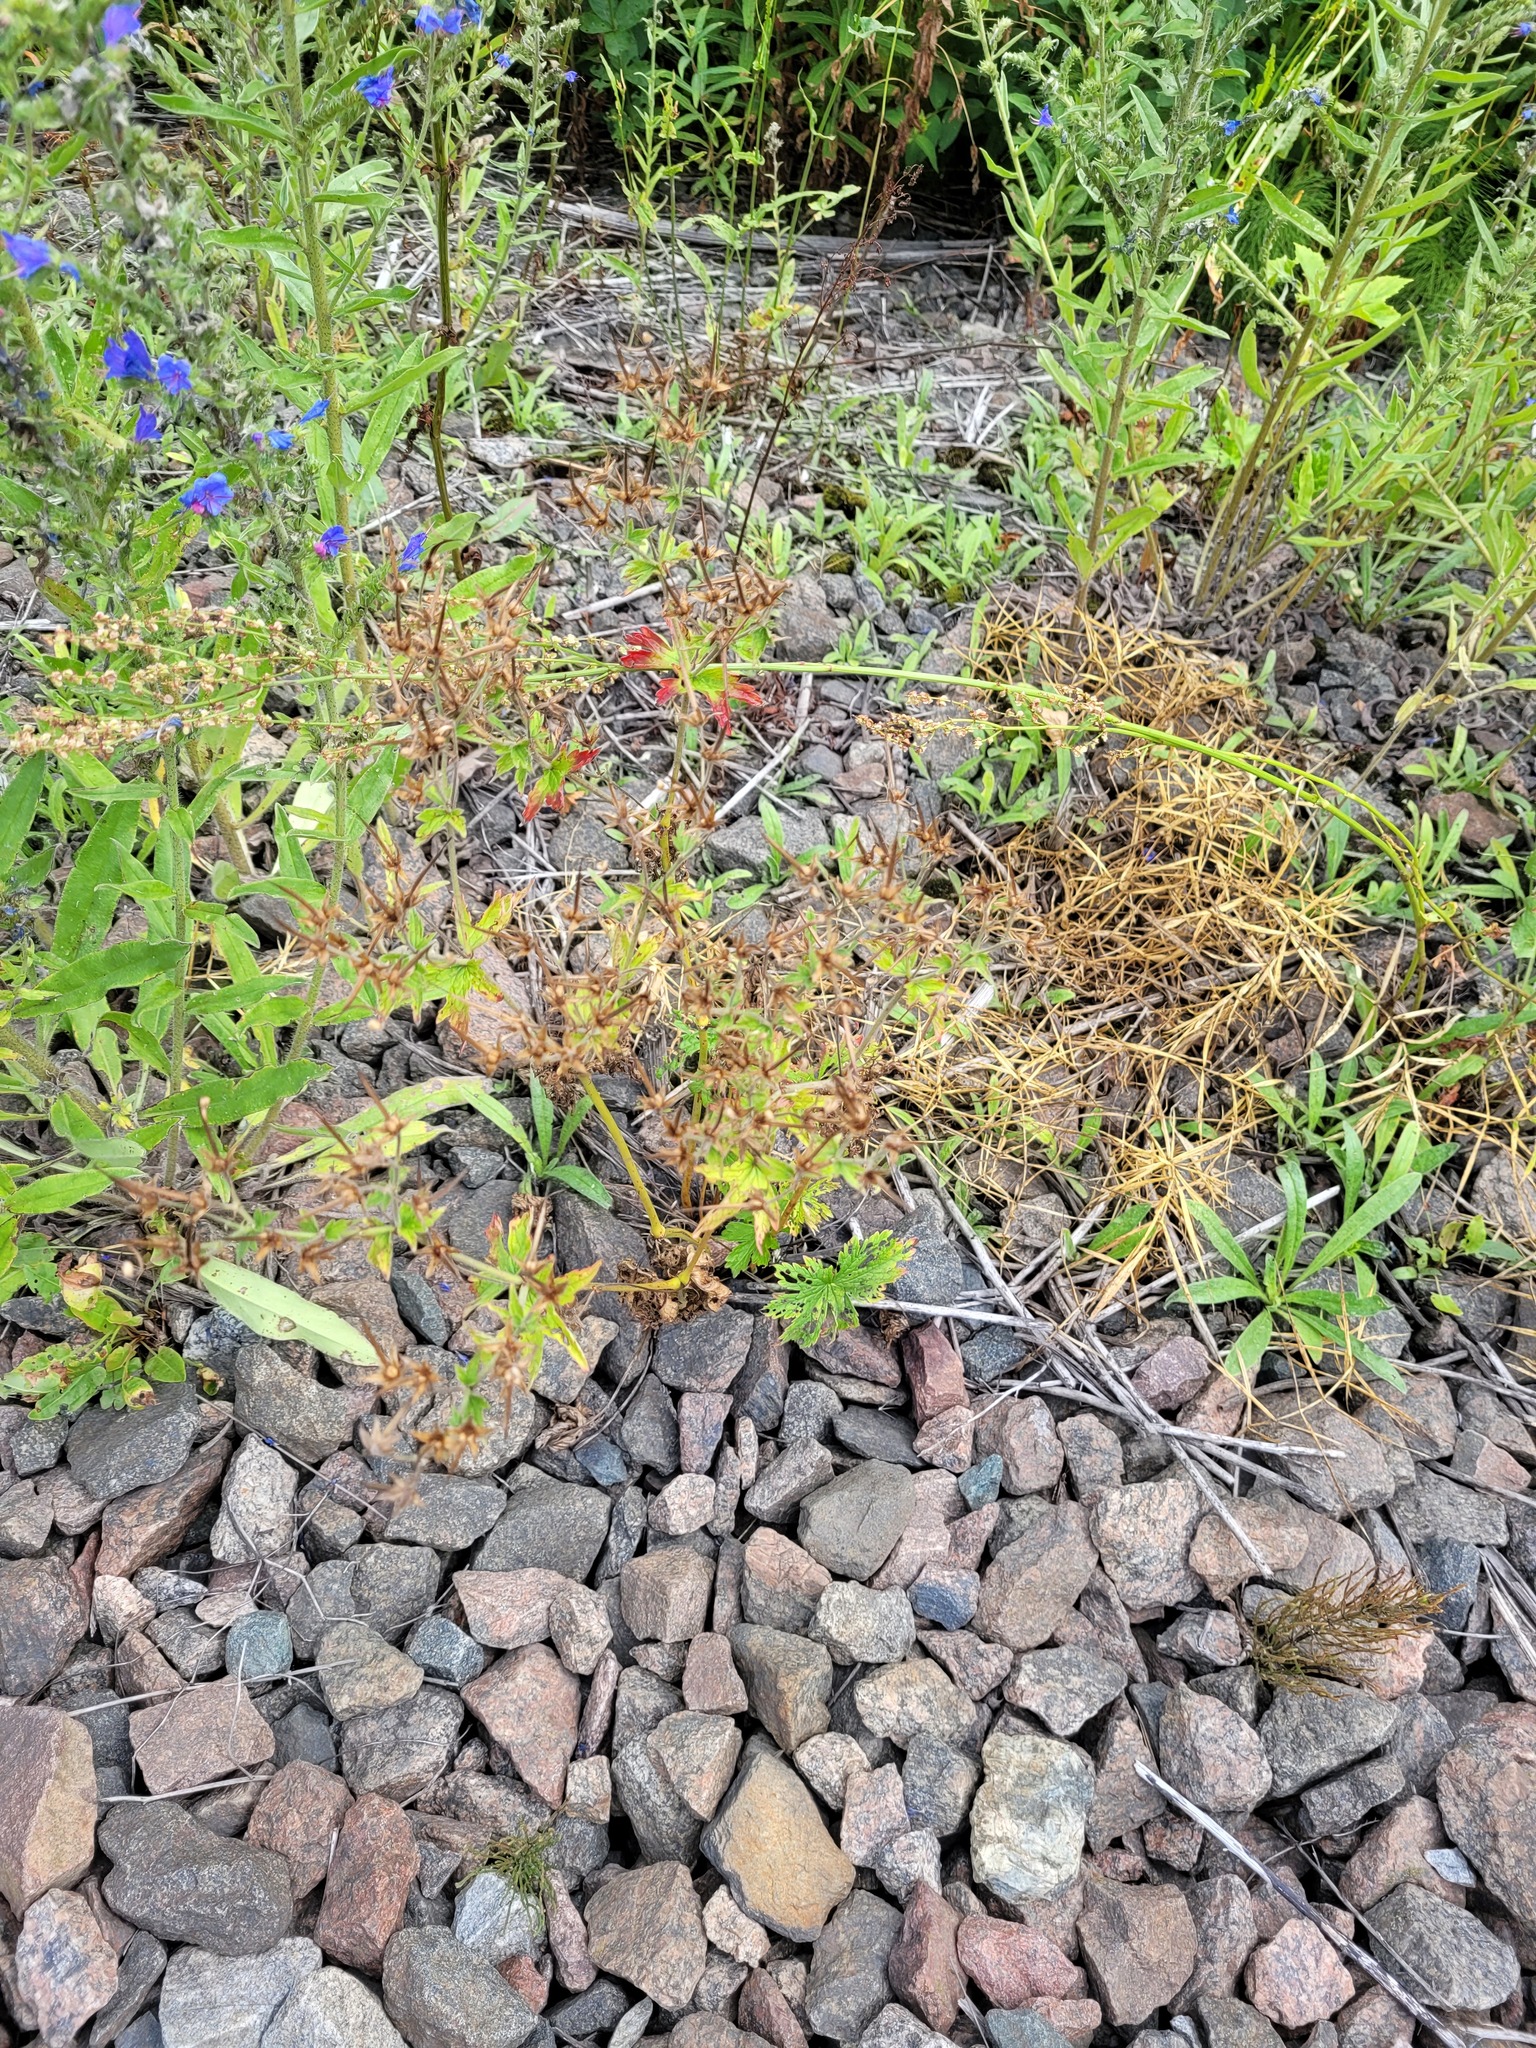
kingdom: Plantae
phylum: Tracheophyta
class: Magnoliopsida
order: Geraniales
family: Geraniaceae
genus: Geranium
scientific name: Geranium sylvaticum
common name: Wood crane's-bill
